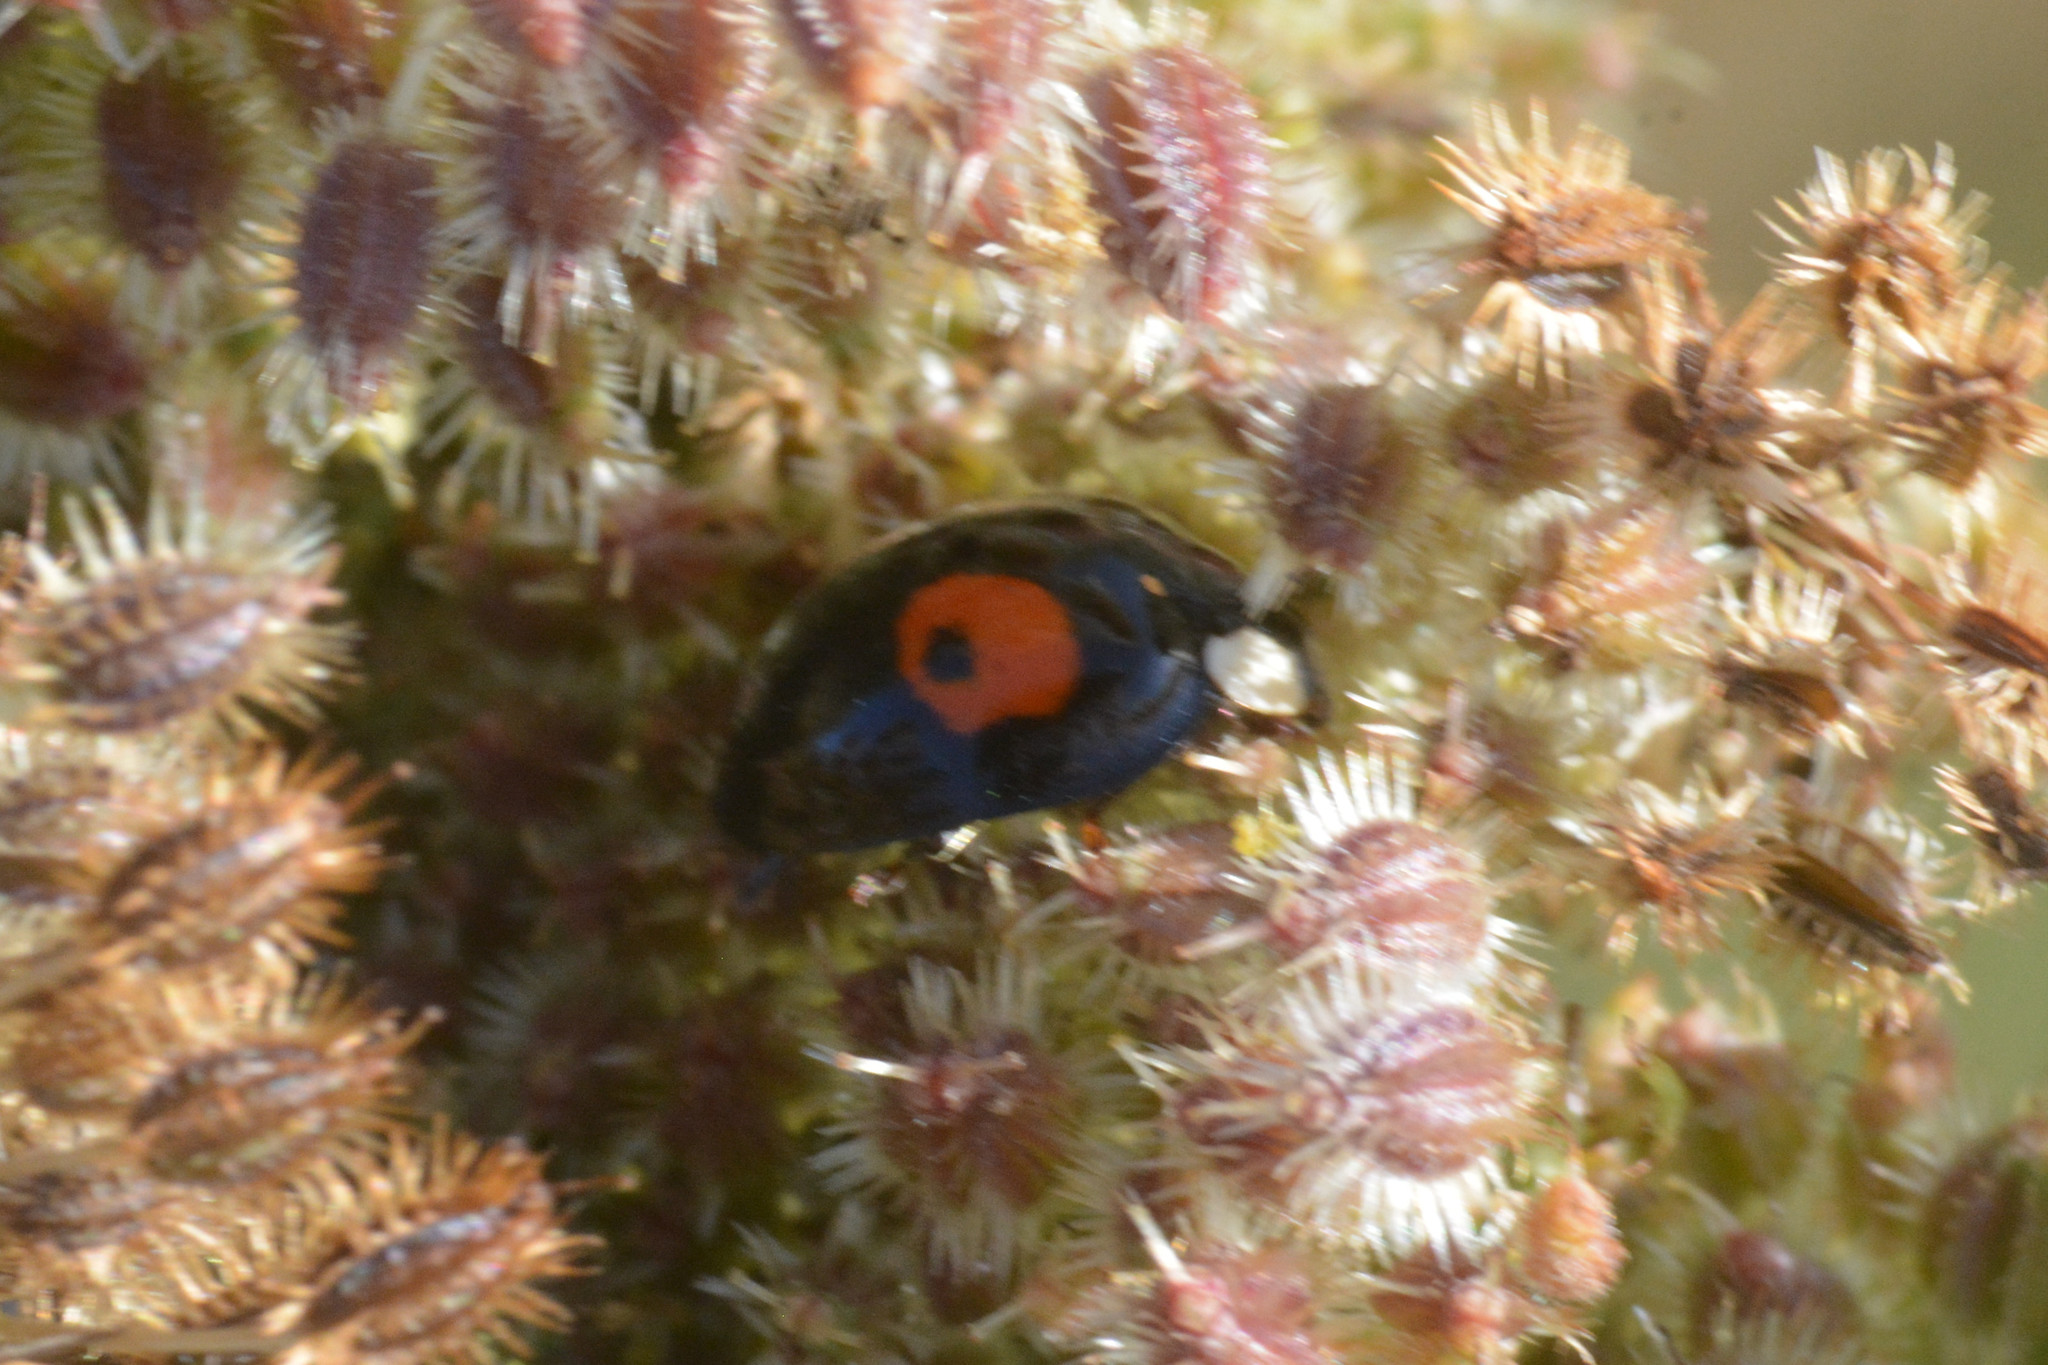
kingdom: Animalia
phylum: Arthropoda
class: Insecta
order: Coleoptera
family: Coccinellidae
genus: Harmonia
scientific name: Harmonia axyridis
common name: Harlequin ladybird
